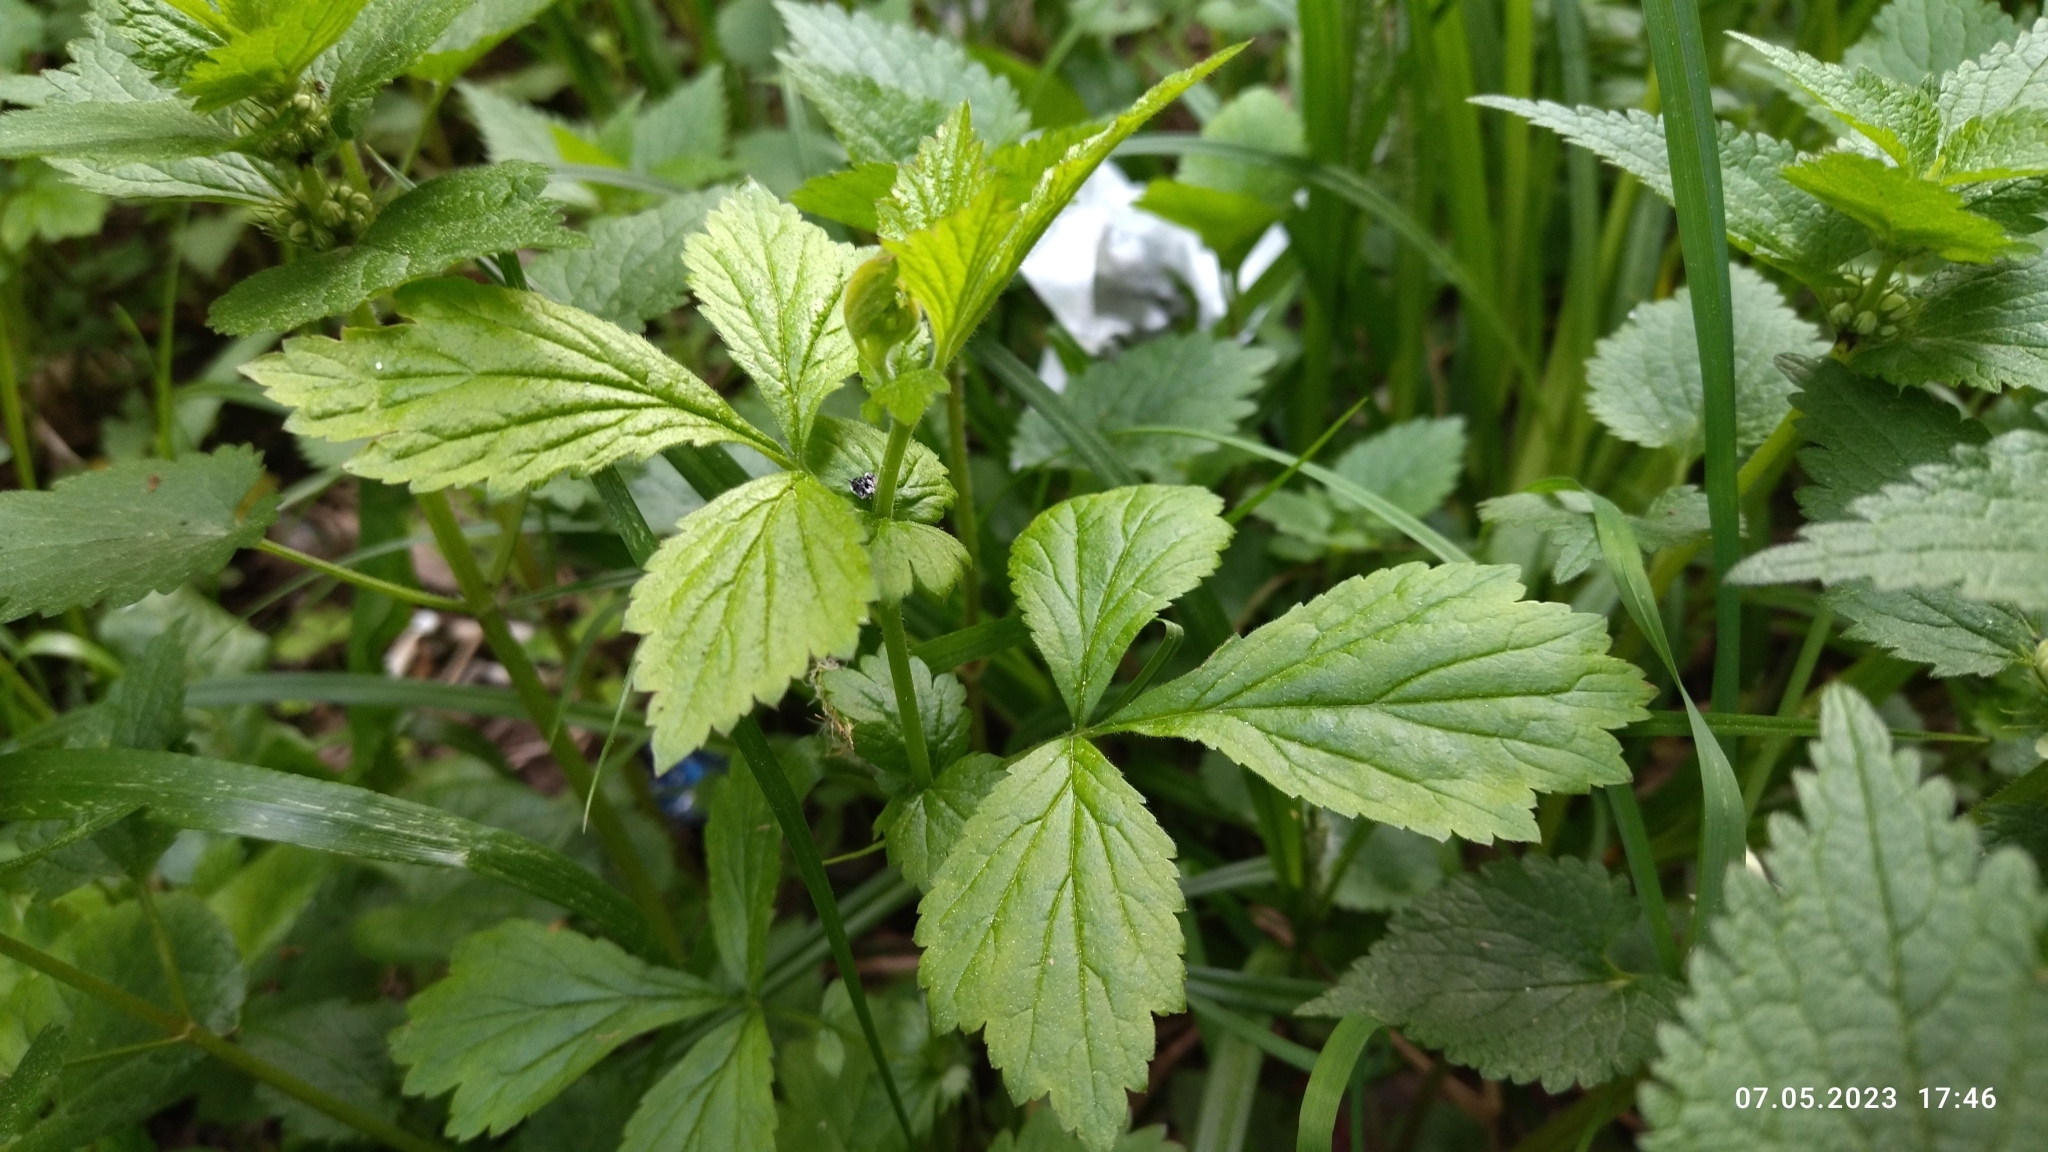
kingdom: Plantae
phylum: Tracheophyta
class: Magnoliopsida
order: Rosales
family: Rosaceae
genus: Geum
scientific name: Geum urbanum
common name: Wood avens
